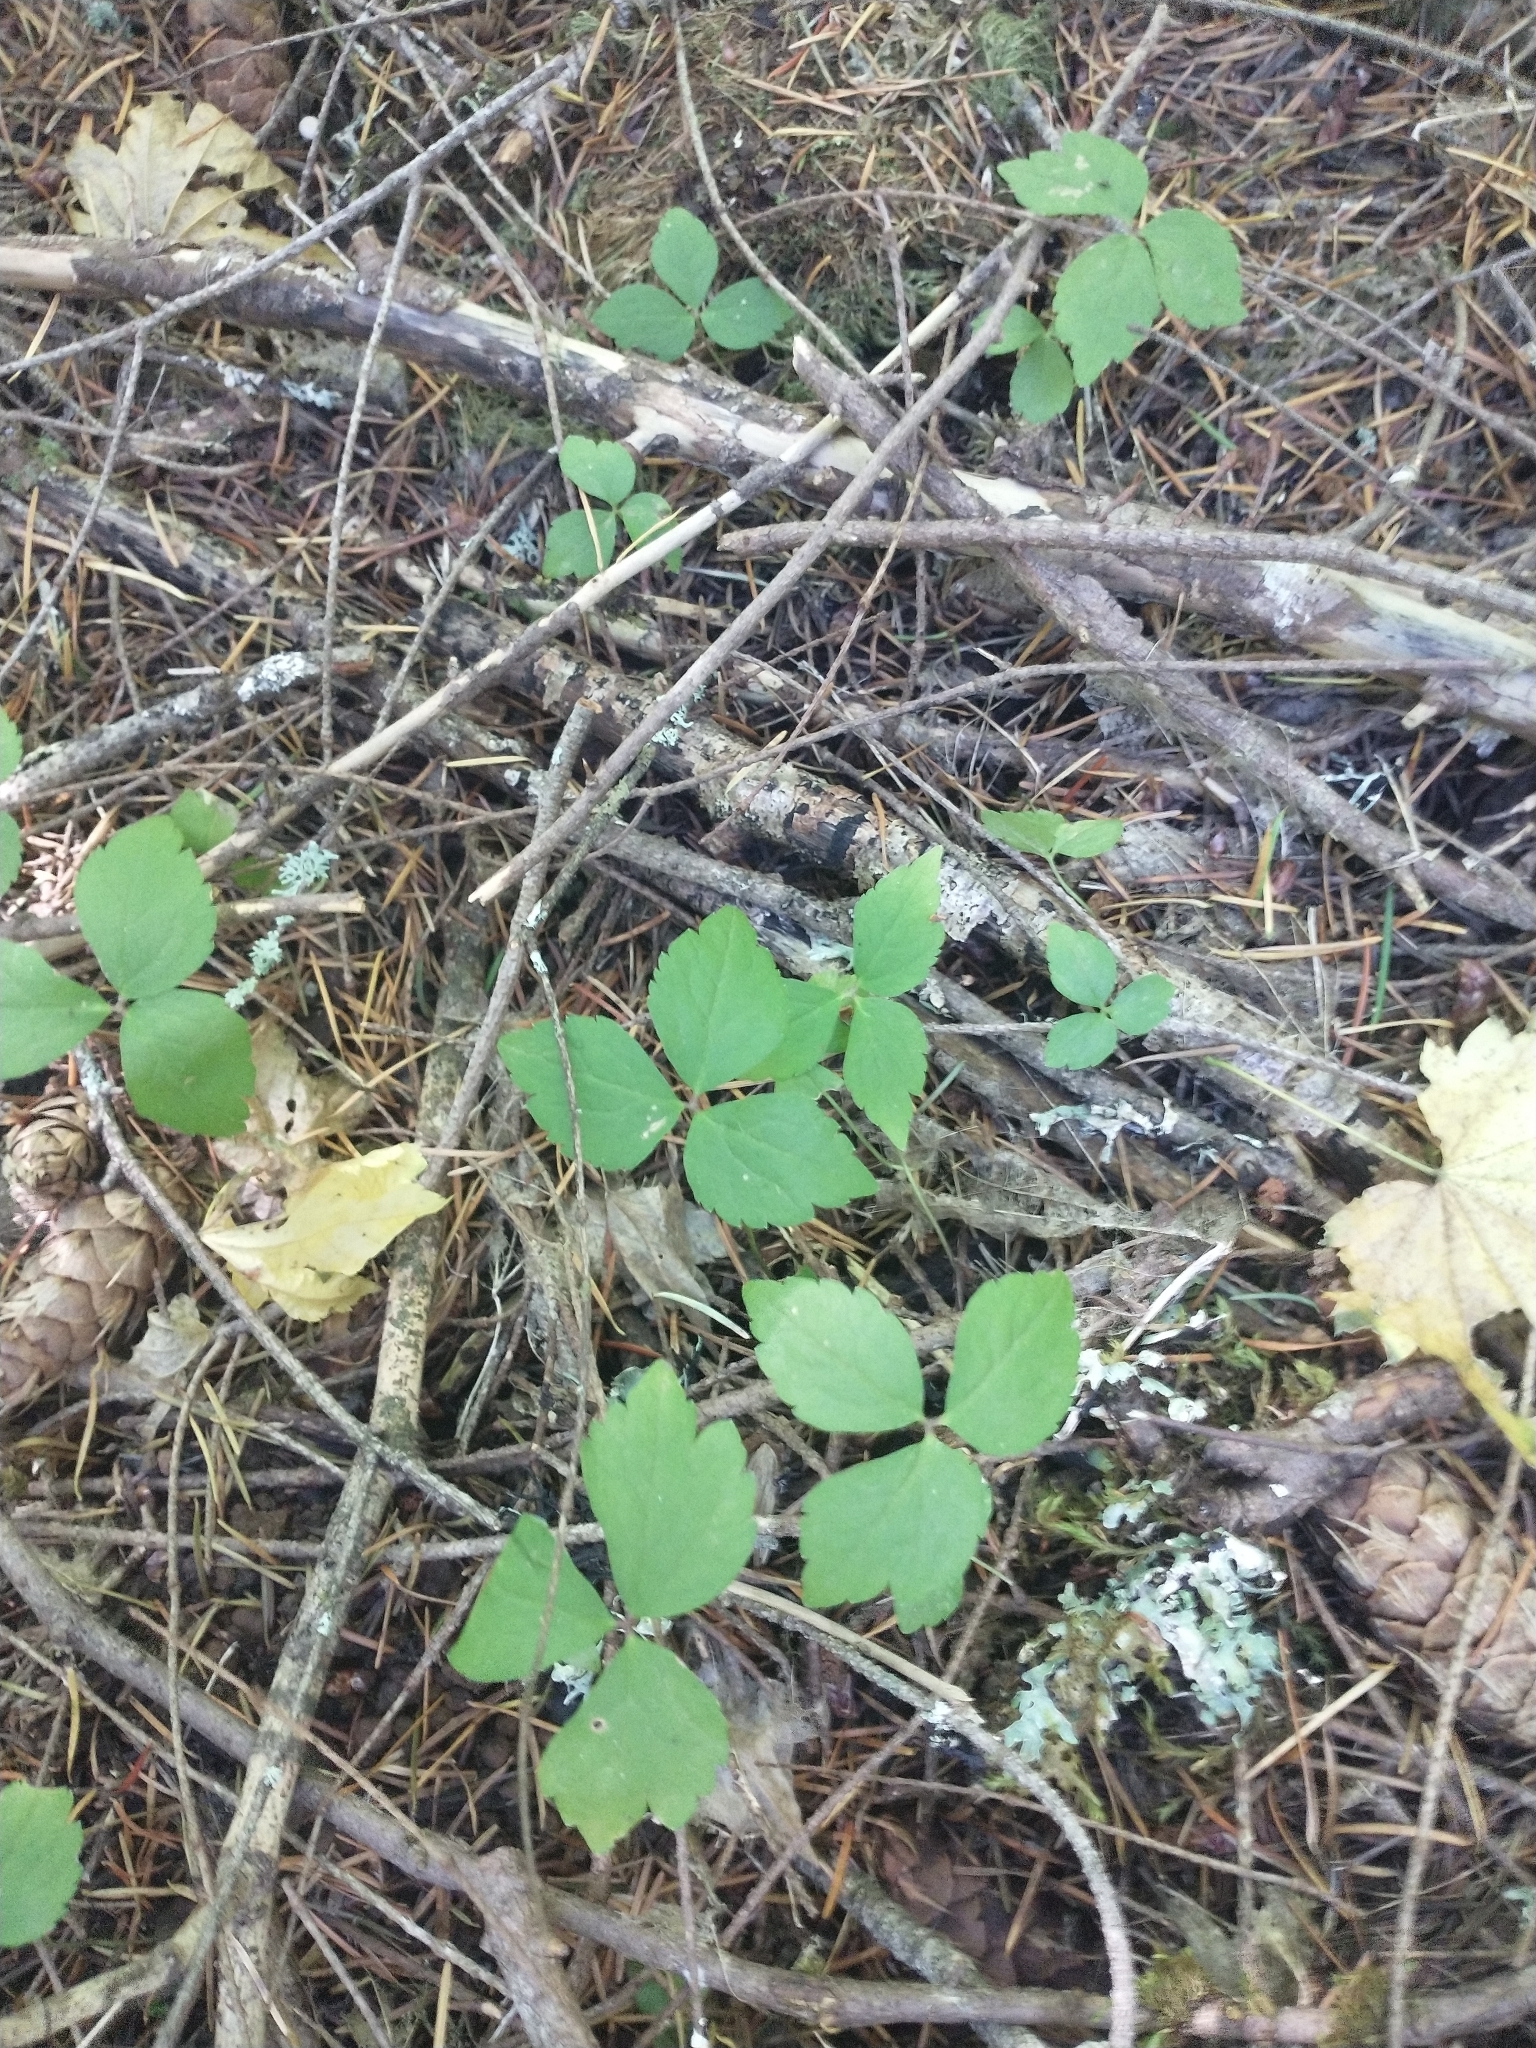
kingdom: Plantae
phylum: Tracheophyta
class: Magnoliopsida
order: Saxifragales
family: Saxifragaceae
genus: Tiarella
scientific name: Tiarella trifoliata
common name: Sugar-scoop
